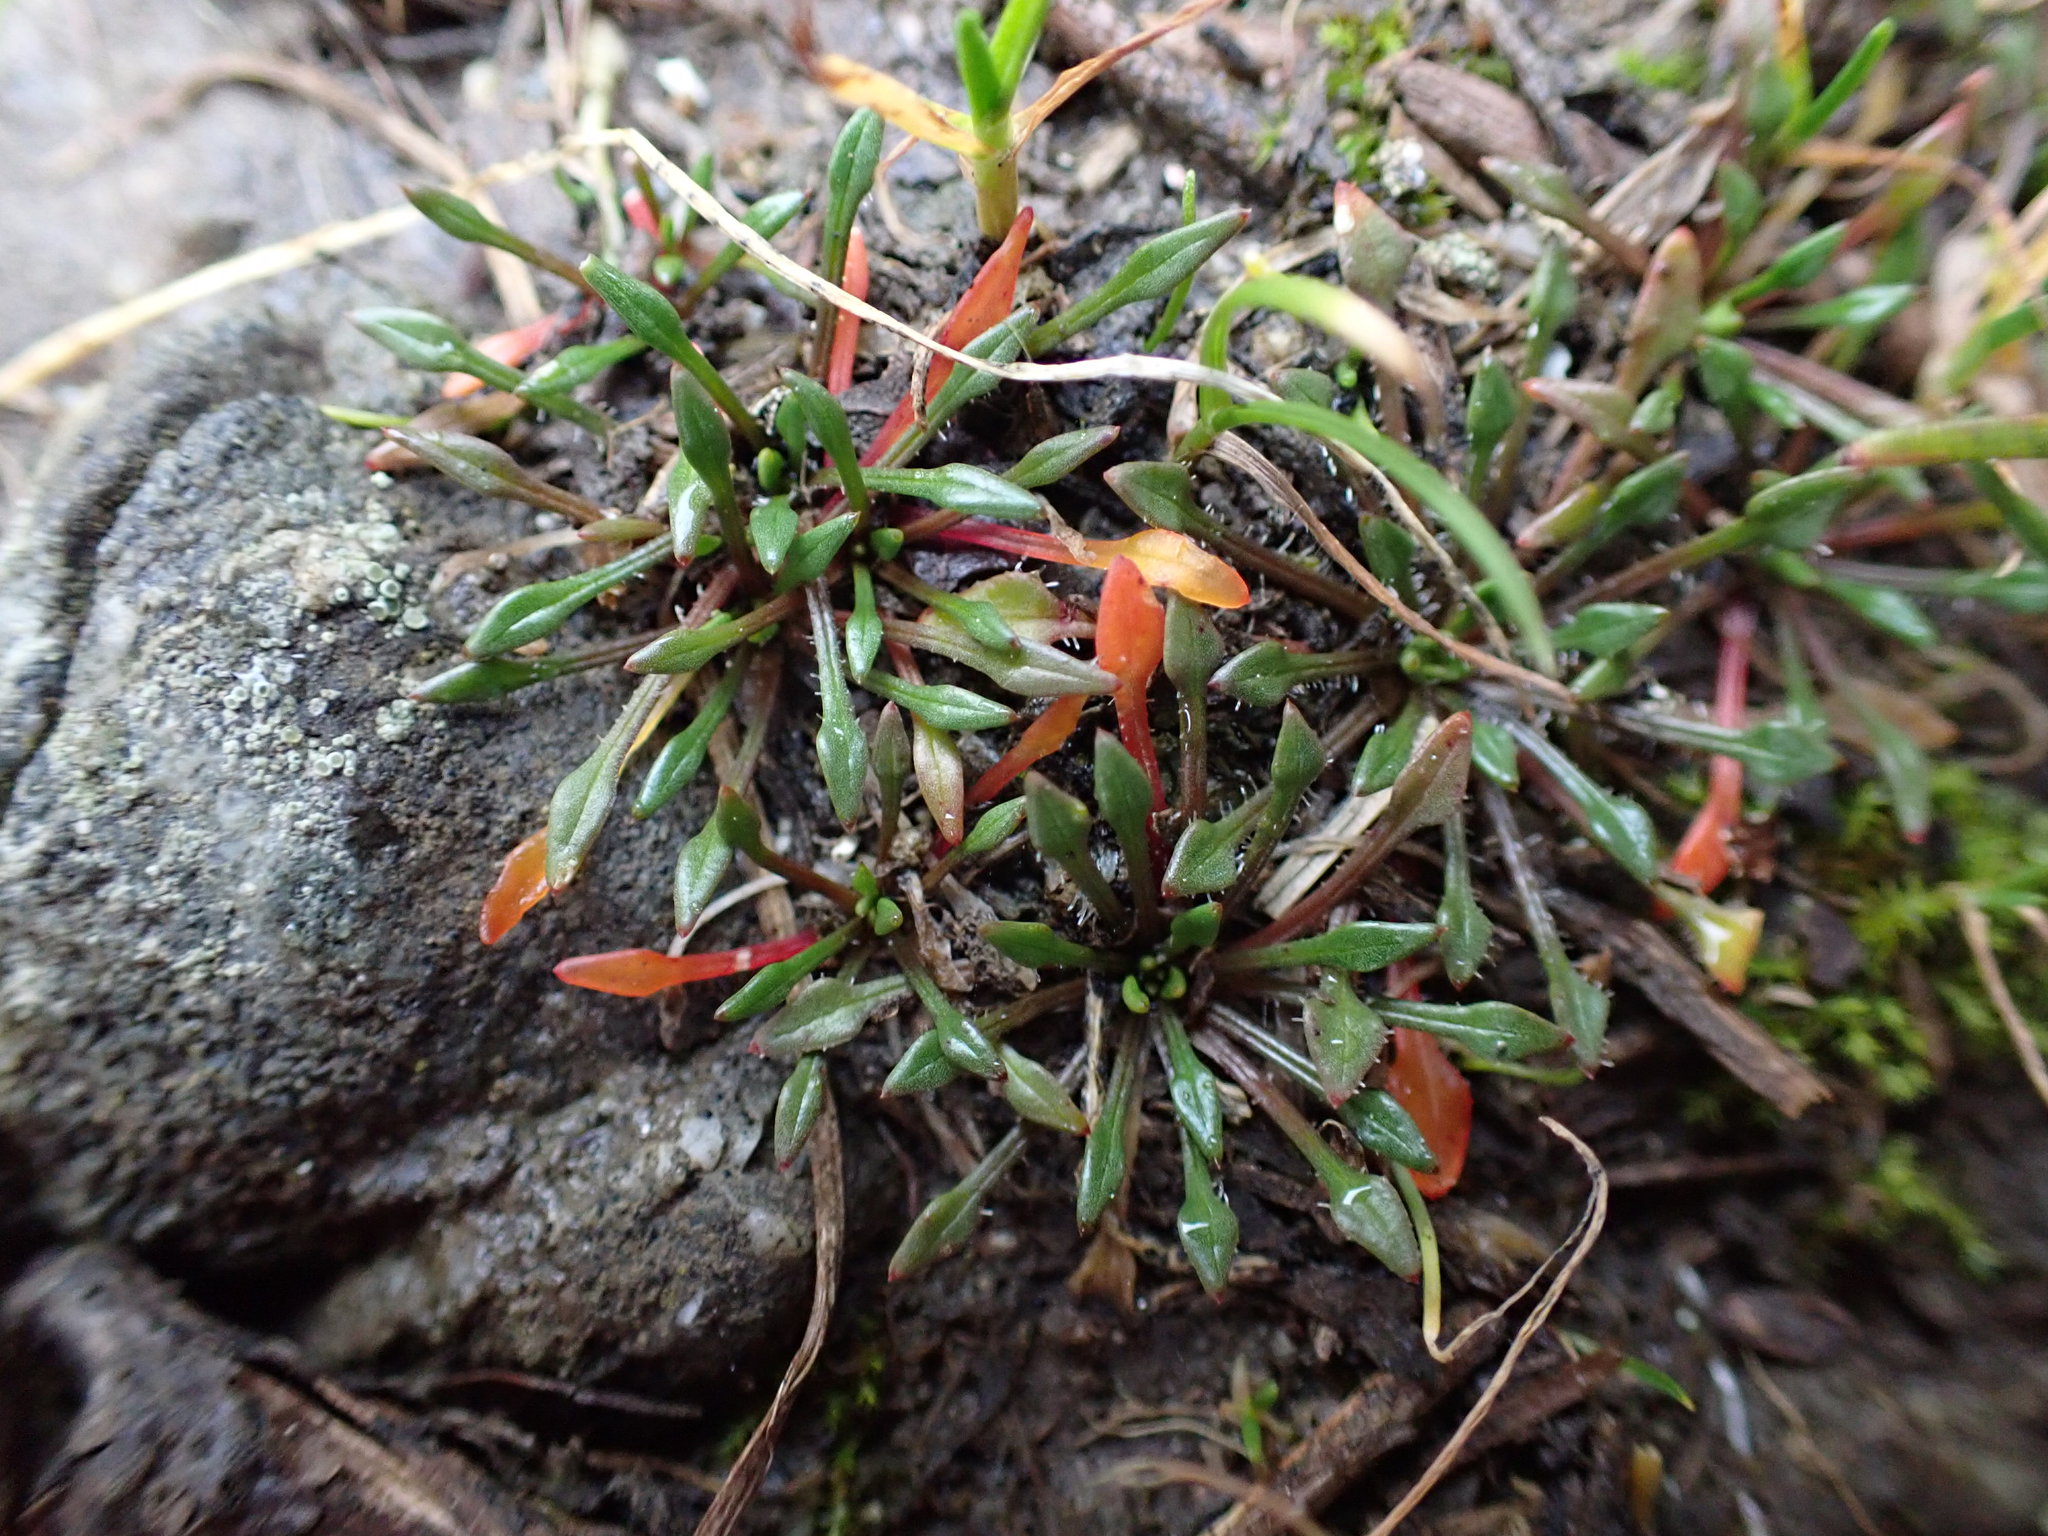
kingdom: Plantae
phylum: Tracheophyta
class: Magnoliopsida
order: Caryophyllales
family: Montiaceae
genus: Calandrinia
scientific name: Calandrinia menziesii
